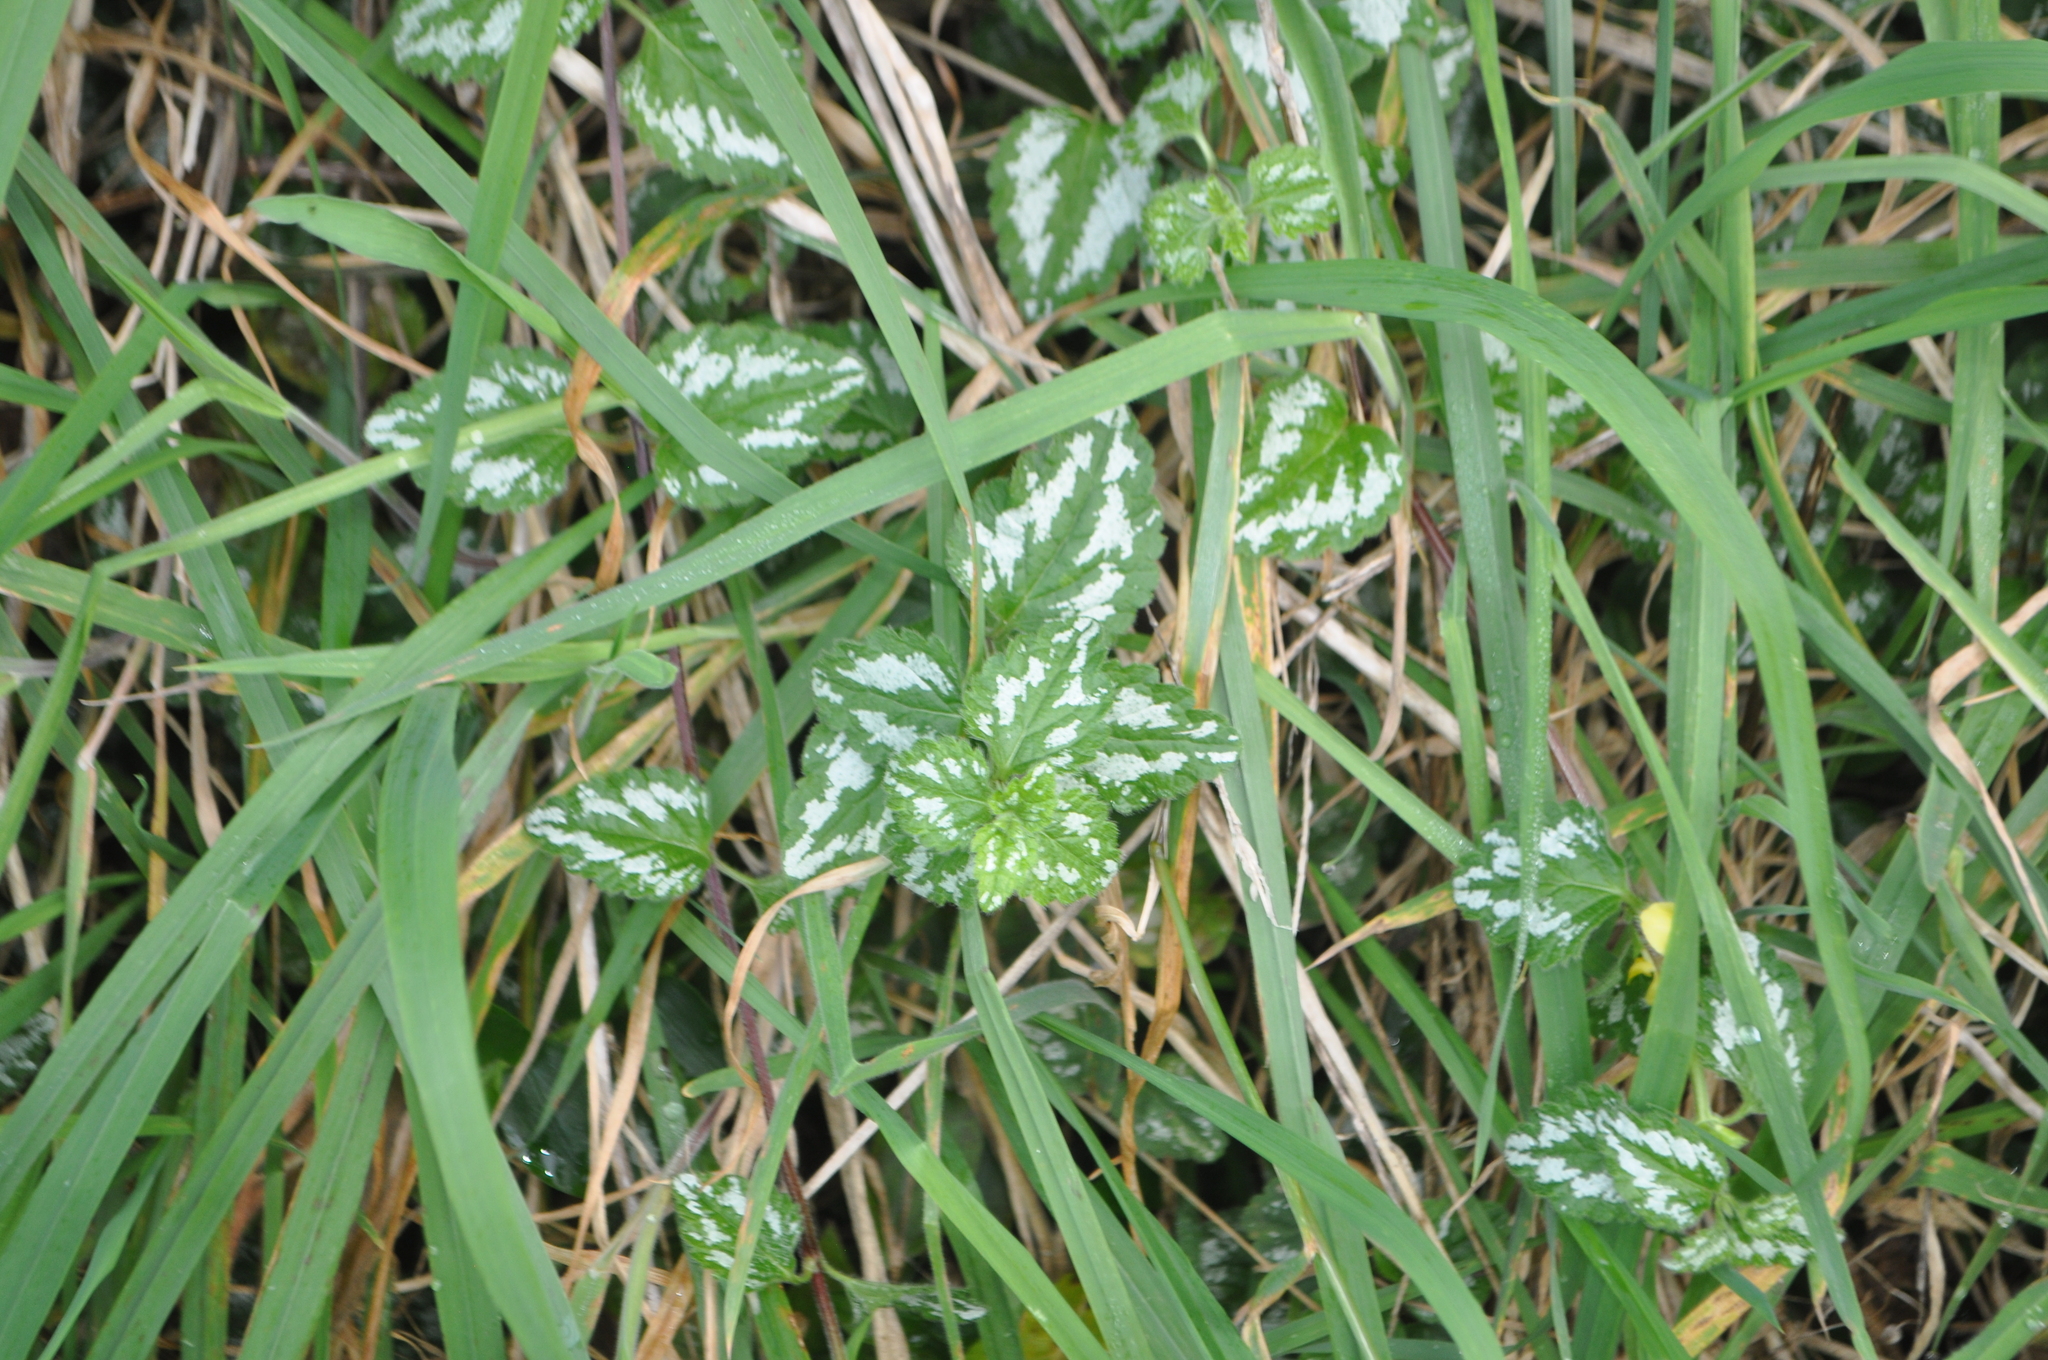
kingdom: Plantae
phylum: Tracheophyta
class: Magnoliopsida
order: Lamiales
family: Lamiaceae
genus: Lamium
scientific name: Lamium galeobdolon
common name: Yellow archangel
